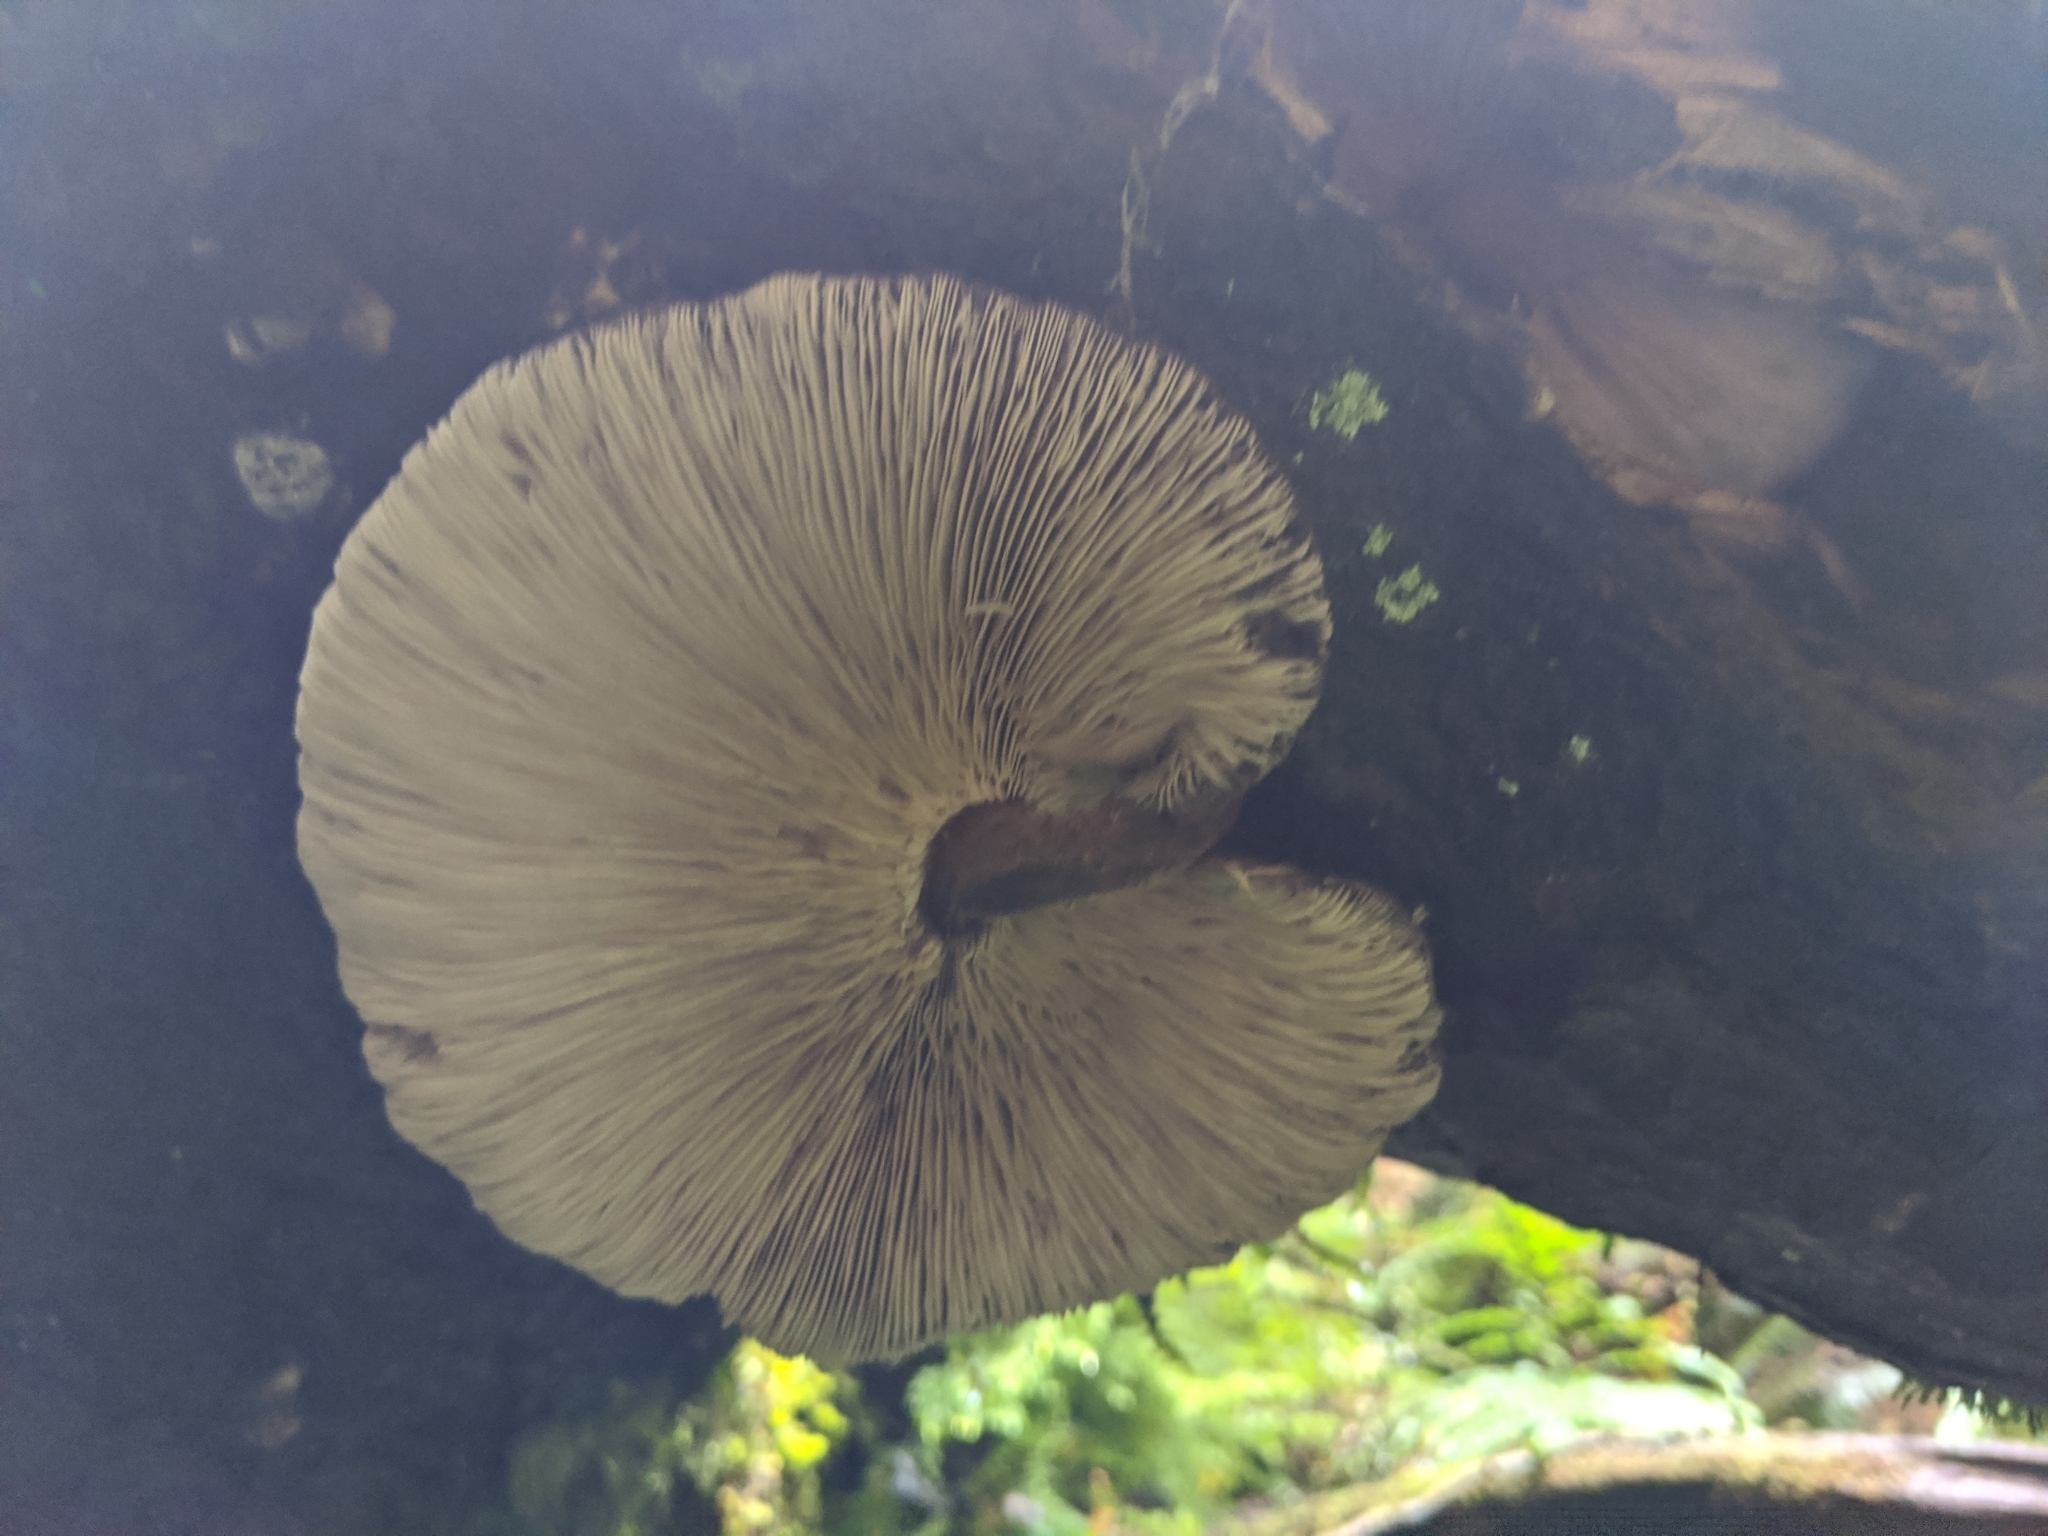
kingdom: Fungi
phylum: Basidiomycota
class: Agaricomycetes
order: Agaricales
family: Omphalotaceae
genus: Lentinula
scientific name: Lentinula novae-zelandiae
